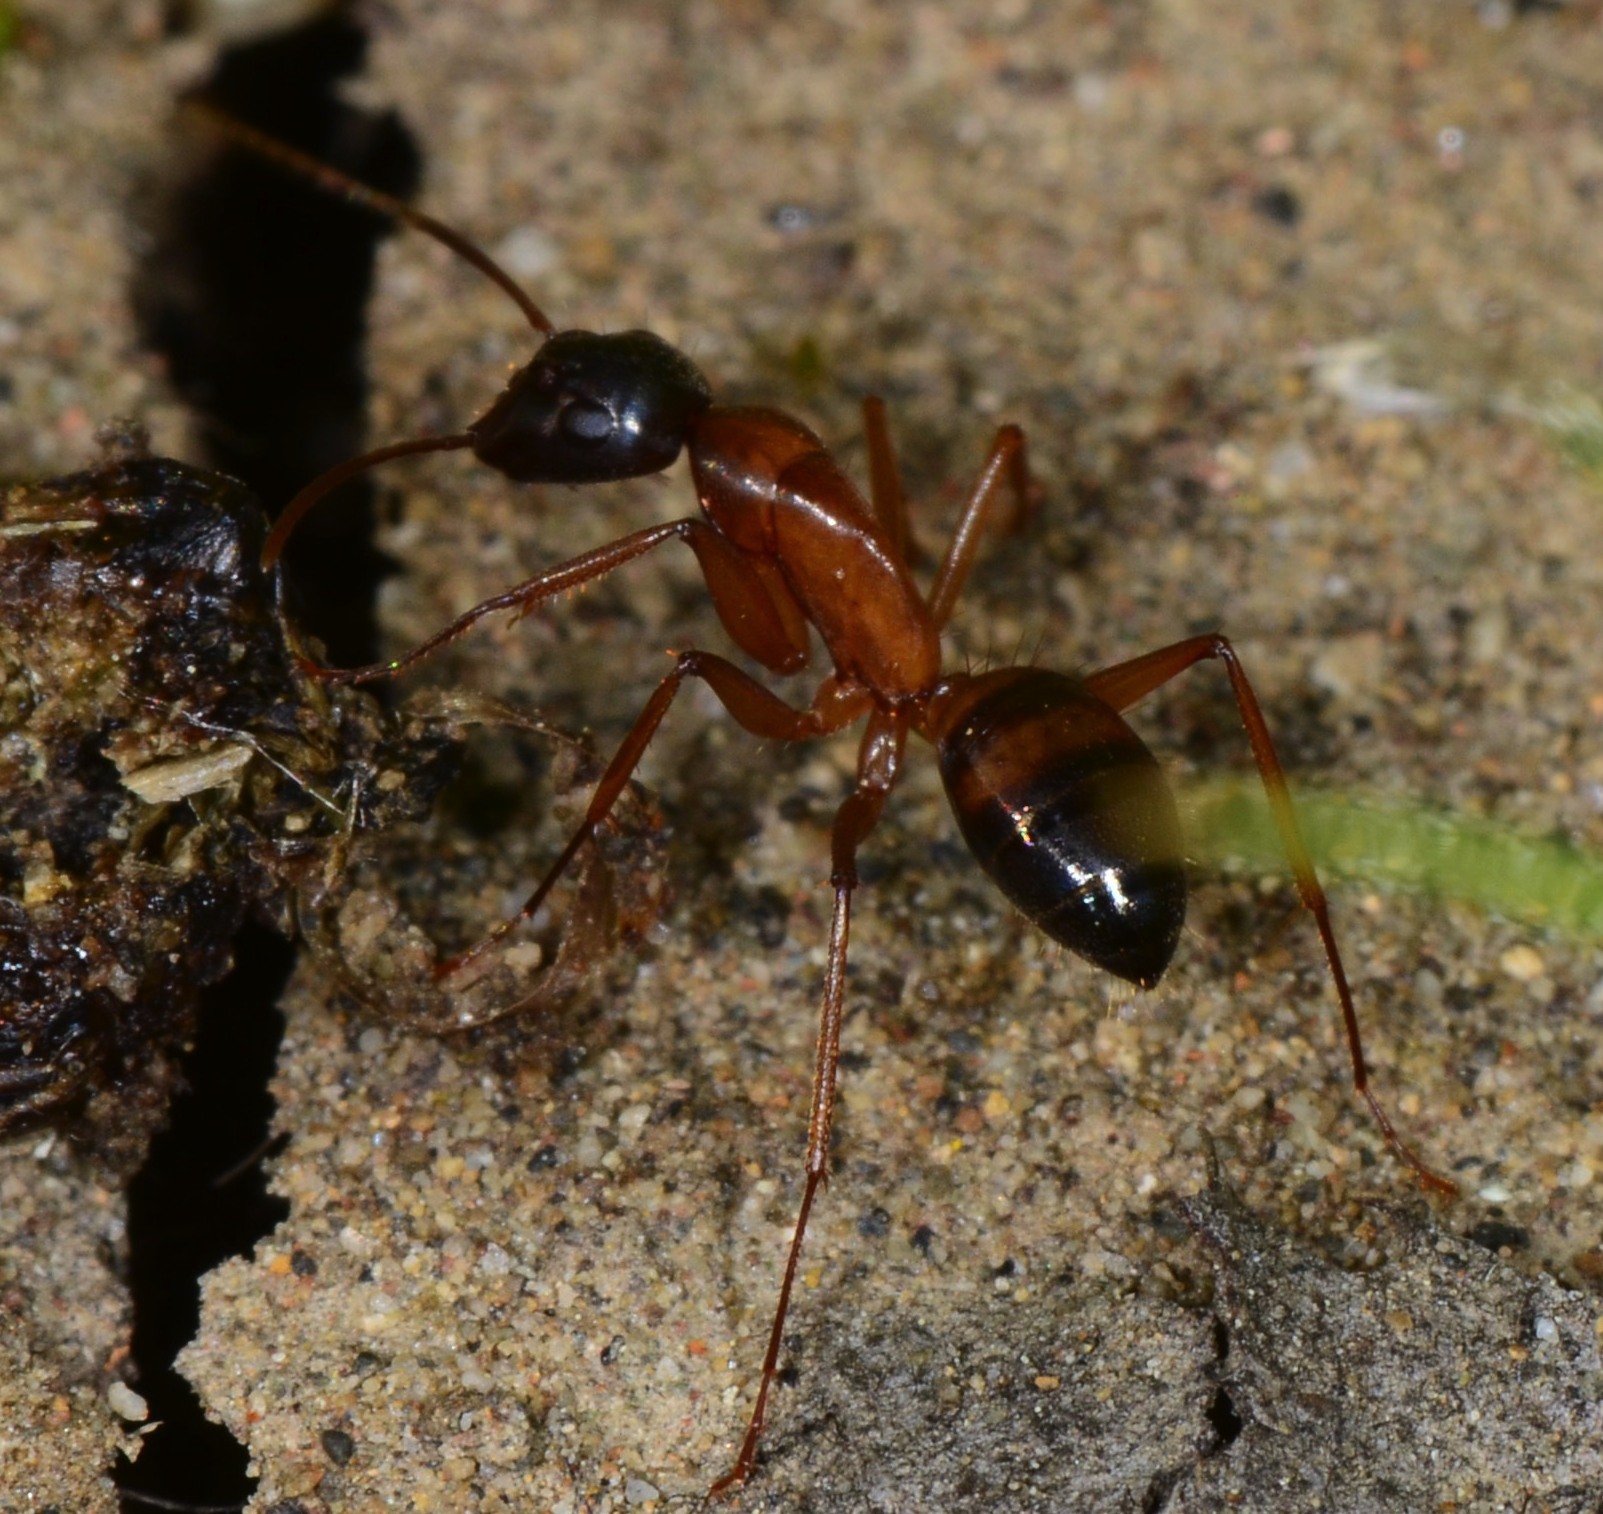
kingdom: Animalia
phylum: Arthropoda
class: Insecta
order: Hymenoptera
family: Formicidae
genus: Camponotus
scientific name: Camponotus semitestaceus
